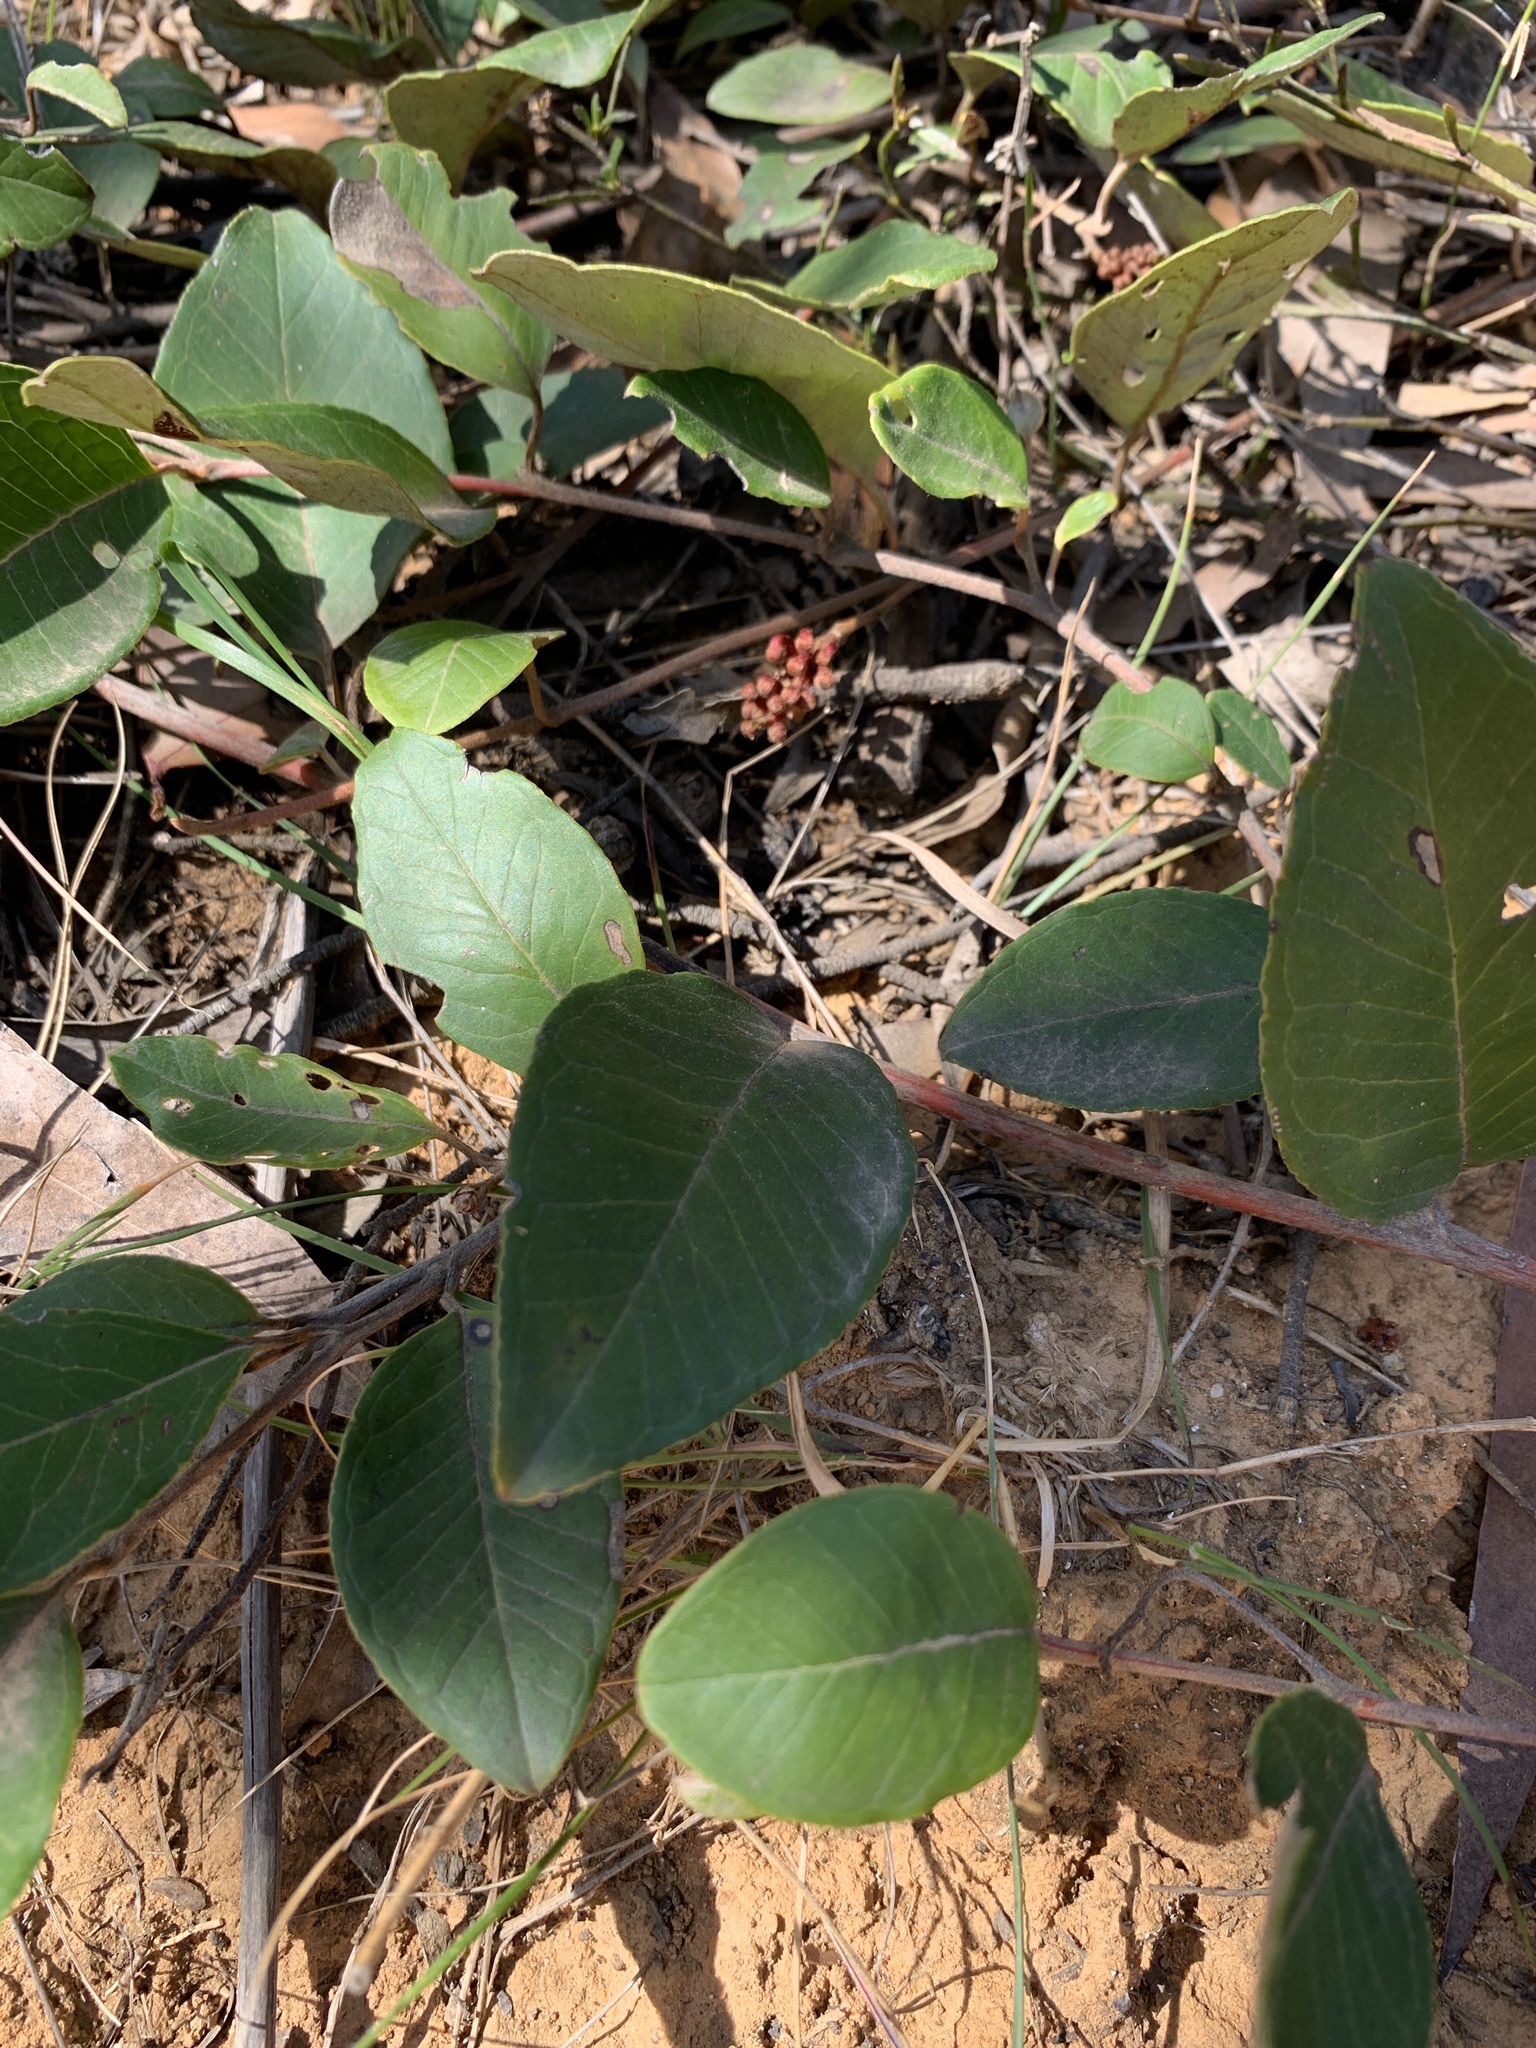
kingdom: Plantae
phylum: Tracheophyta
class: Magnoliopsida
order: Fabales
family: Polygalaceae
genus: Comesperma
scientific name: Comesperma ericinum
